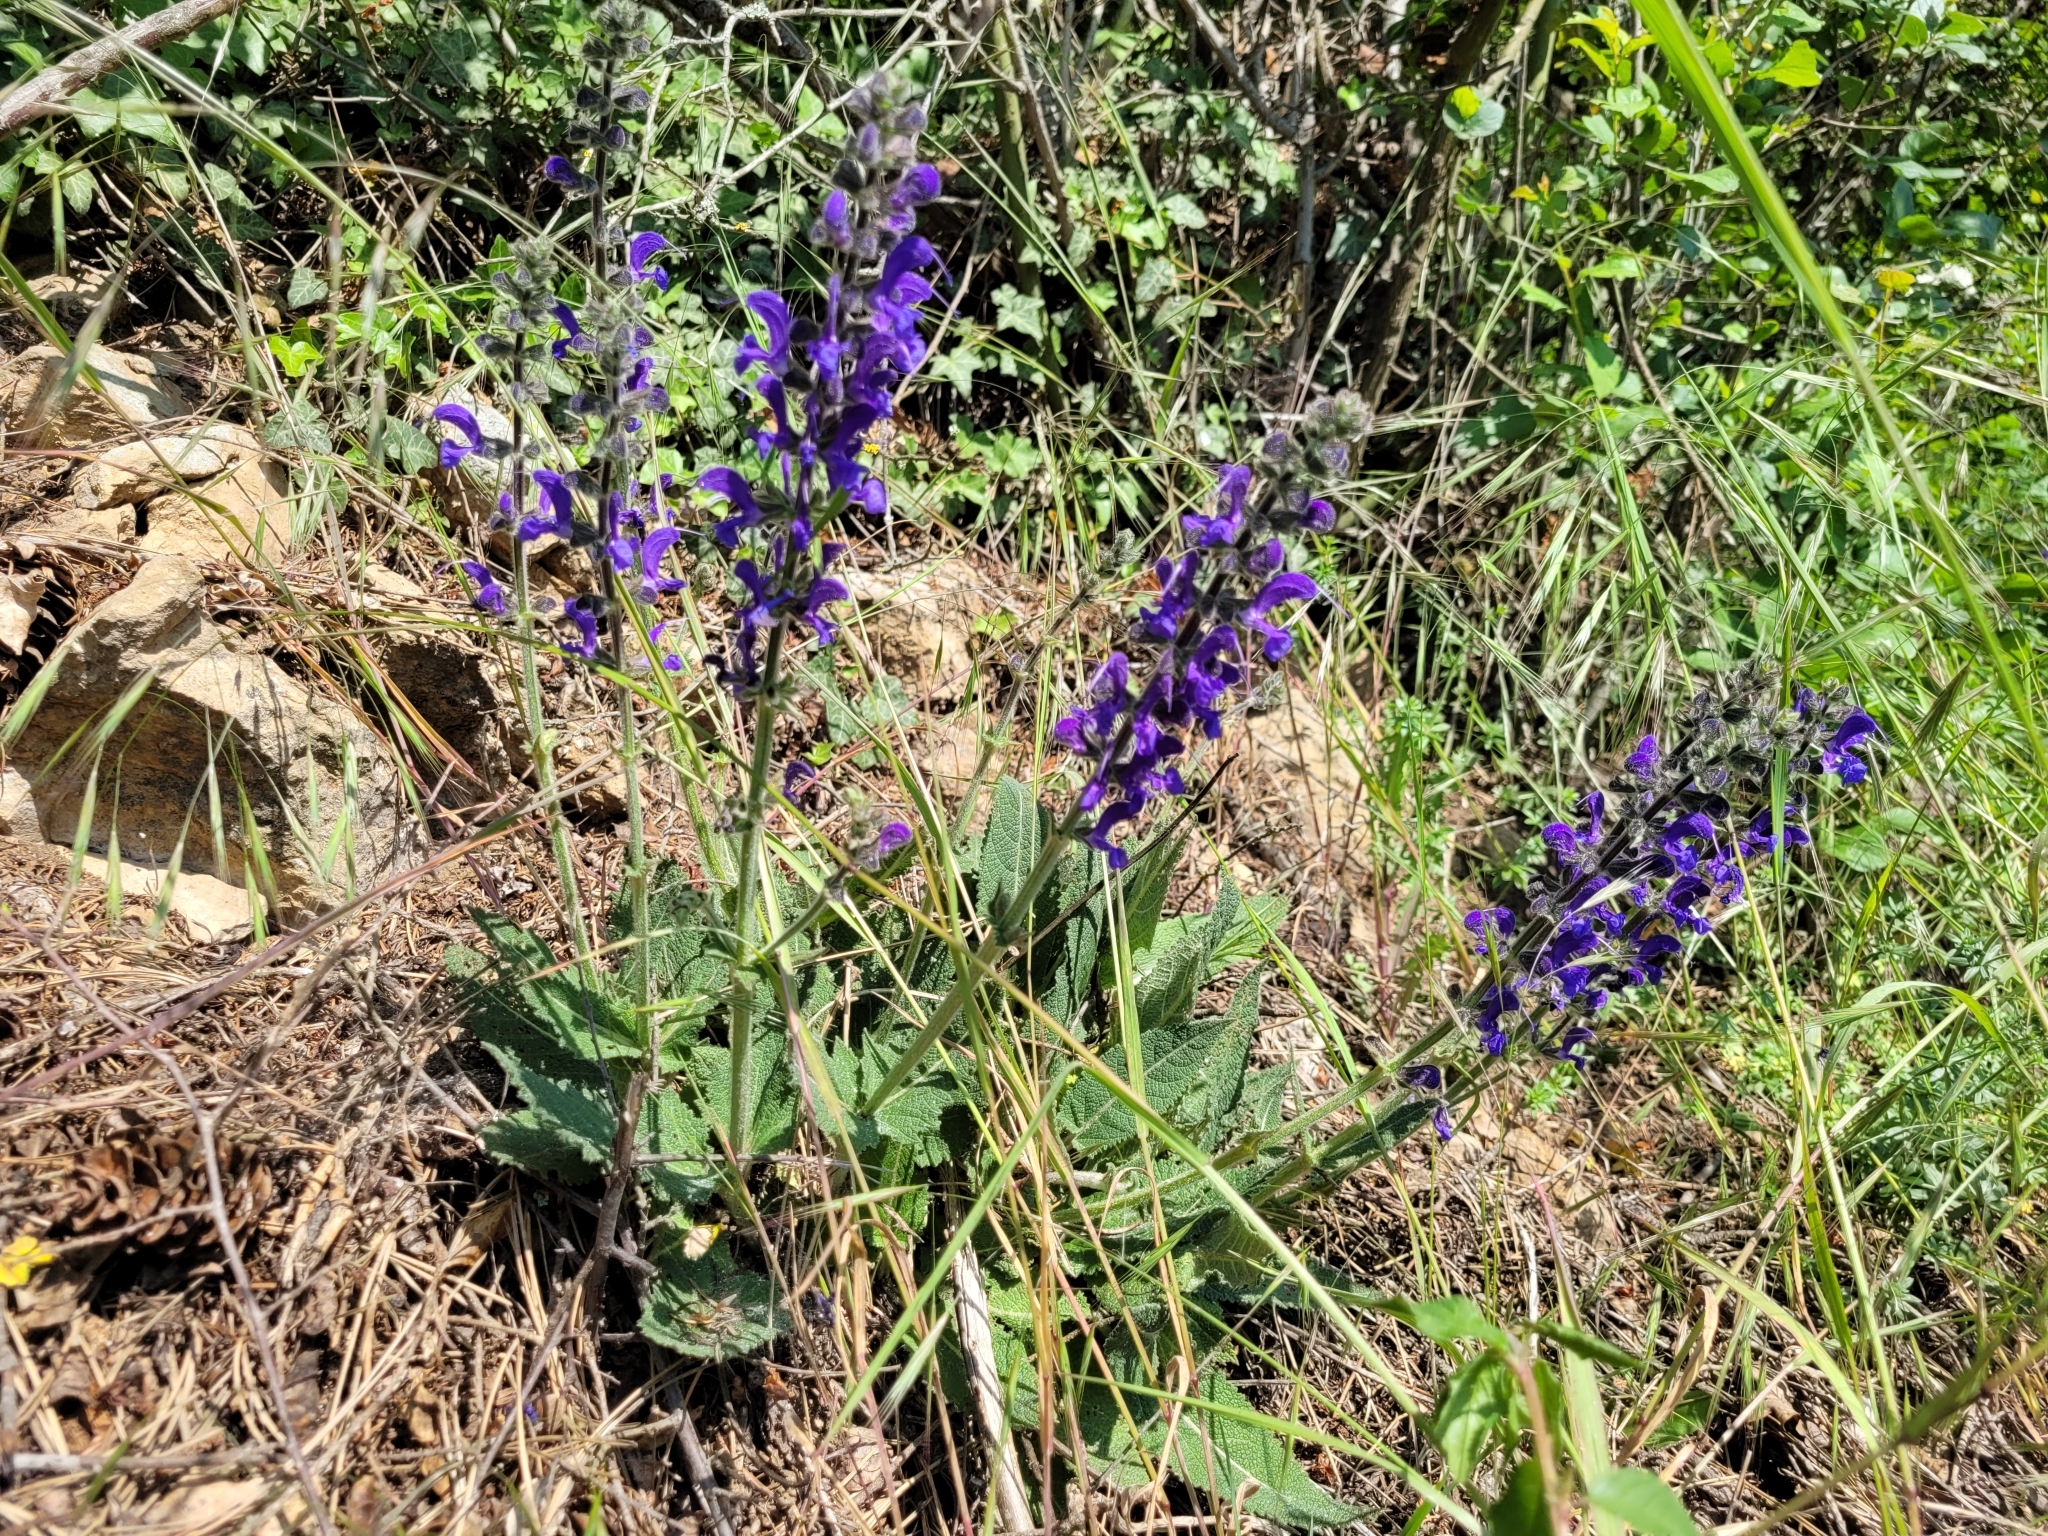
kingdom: Plantae
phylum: Tracheophyta
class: Magnoliopsida
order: Lamiales
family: Lamiaceae
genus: Salvia
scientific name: Salvia pratensis
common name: Meadow sage
